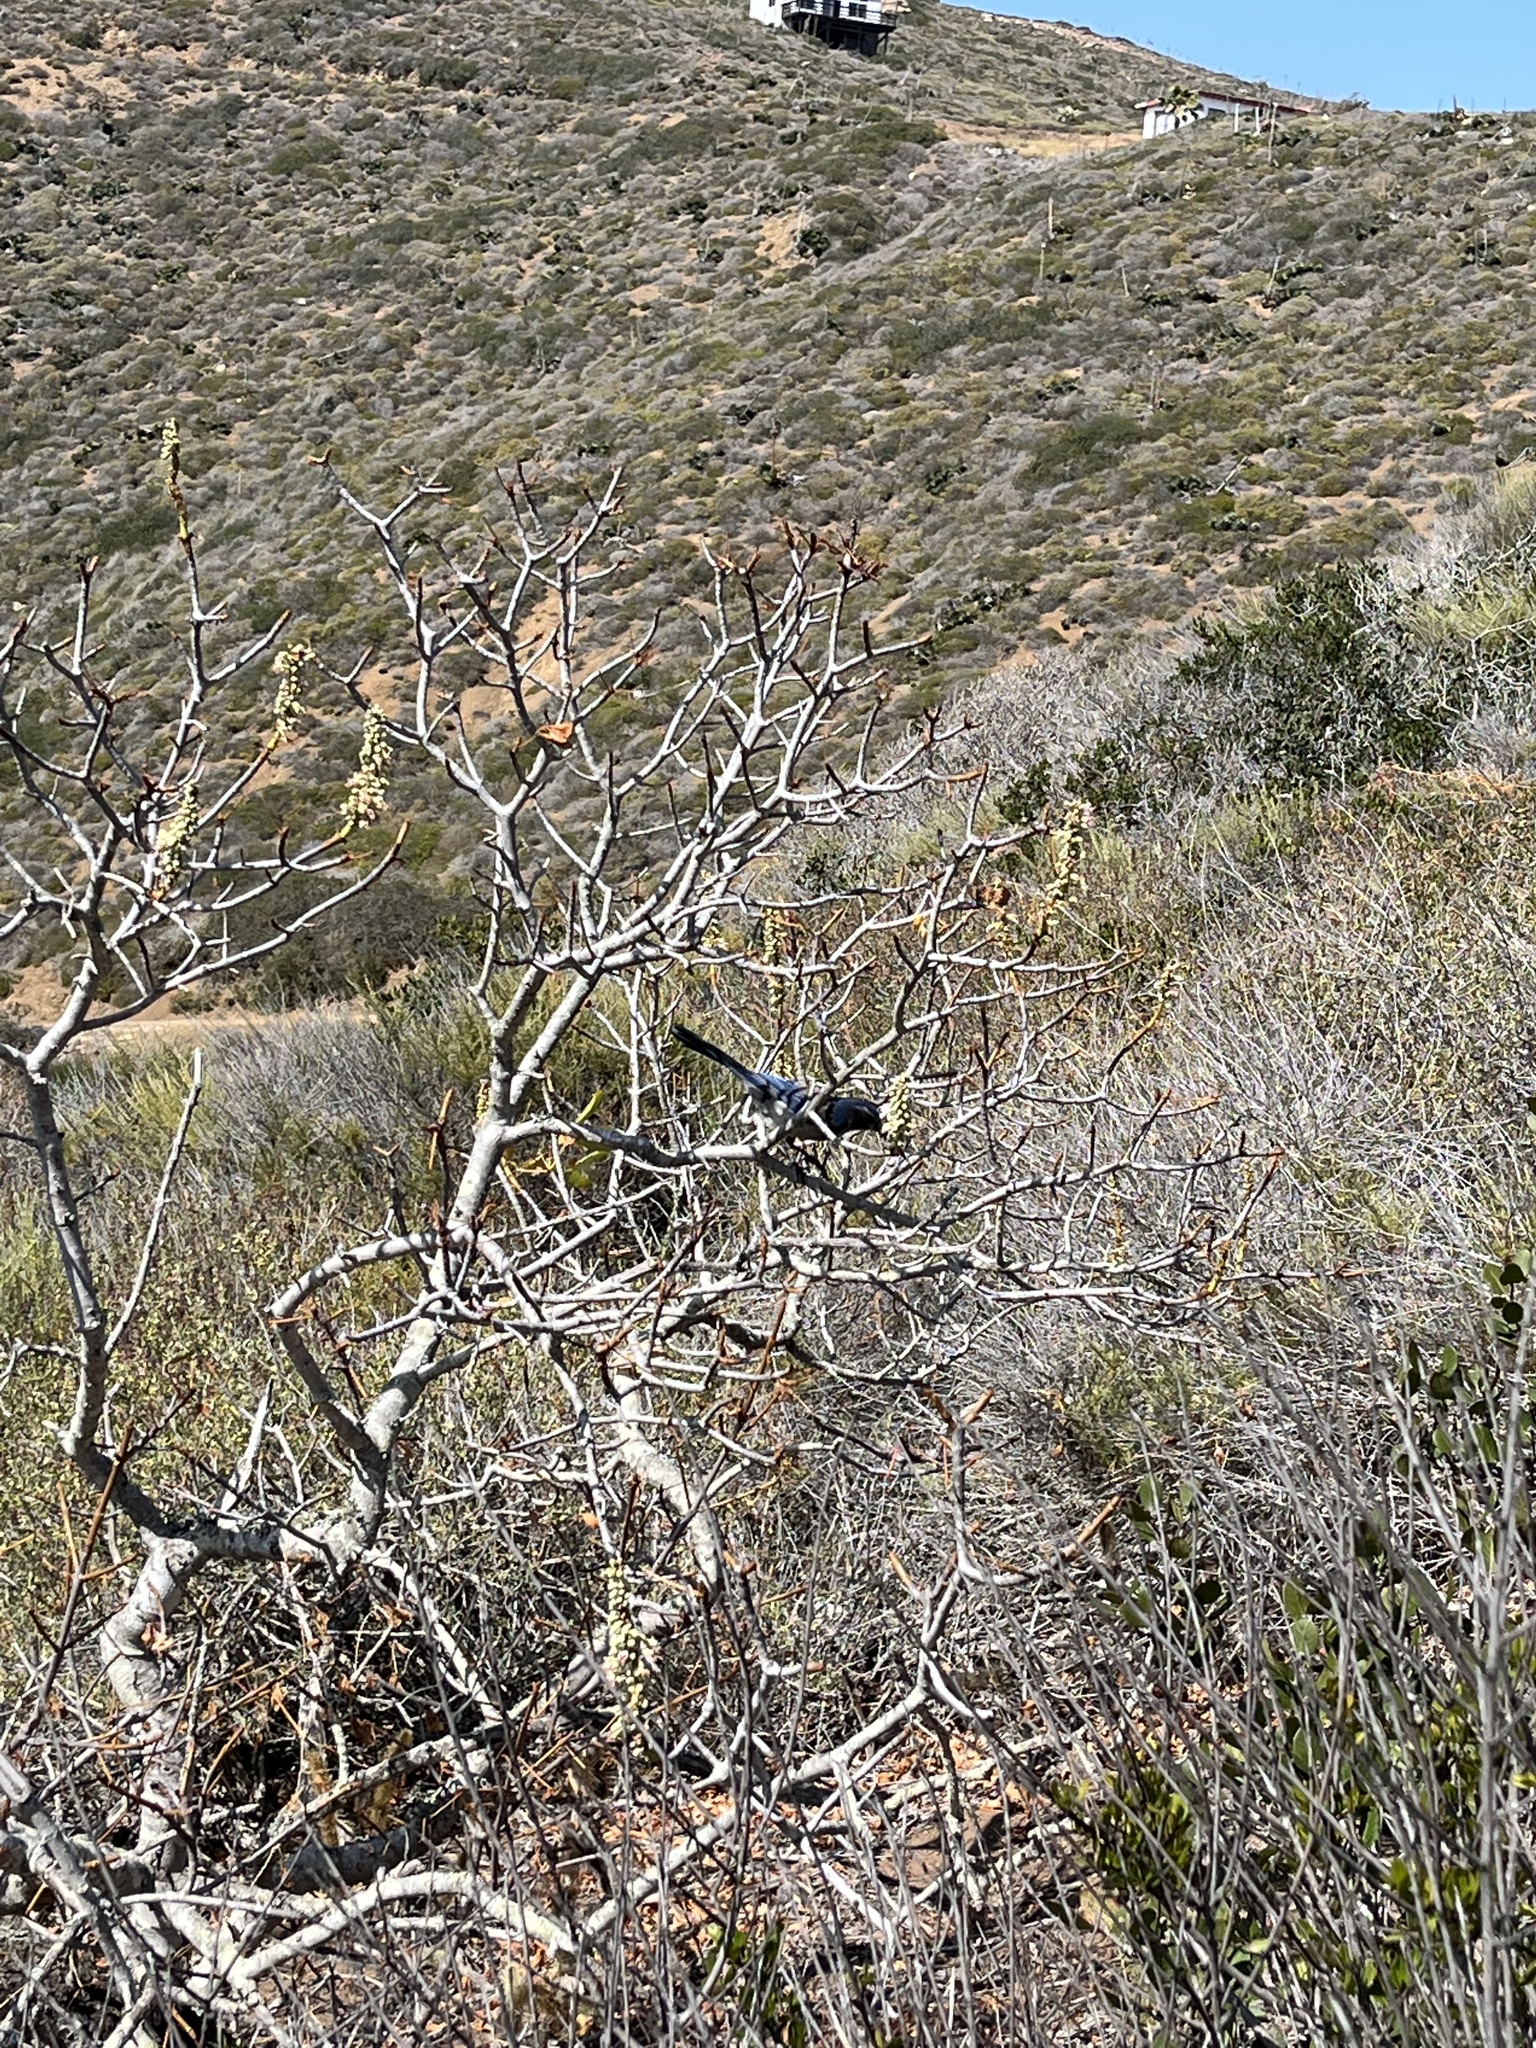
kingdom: Animalia
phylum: Chordata
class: Aves
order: Passeriformes
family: Corvidae
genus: Aphelocoma
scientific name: Aphelocoma californica
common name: California scrub-jay
